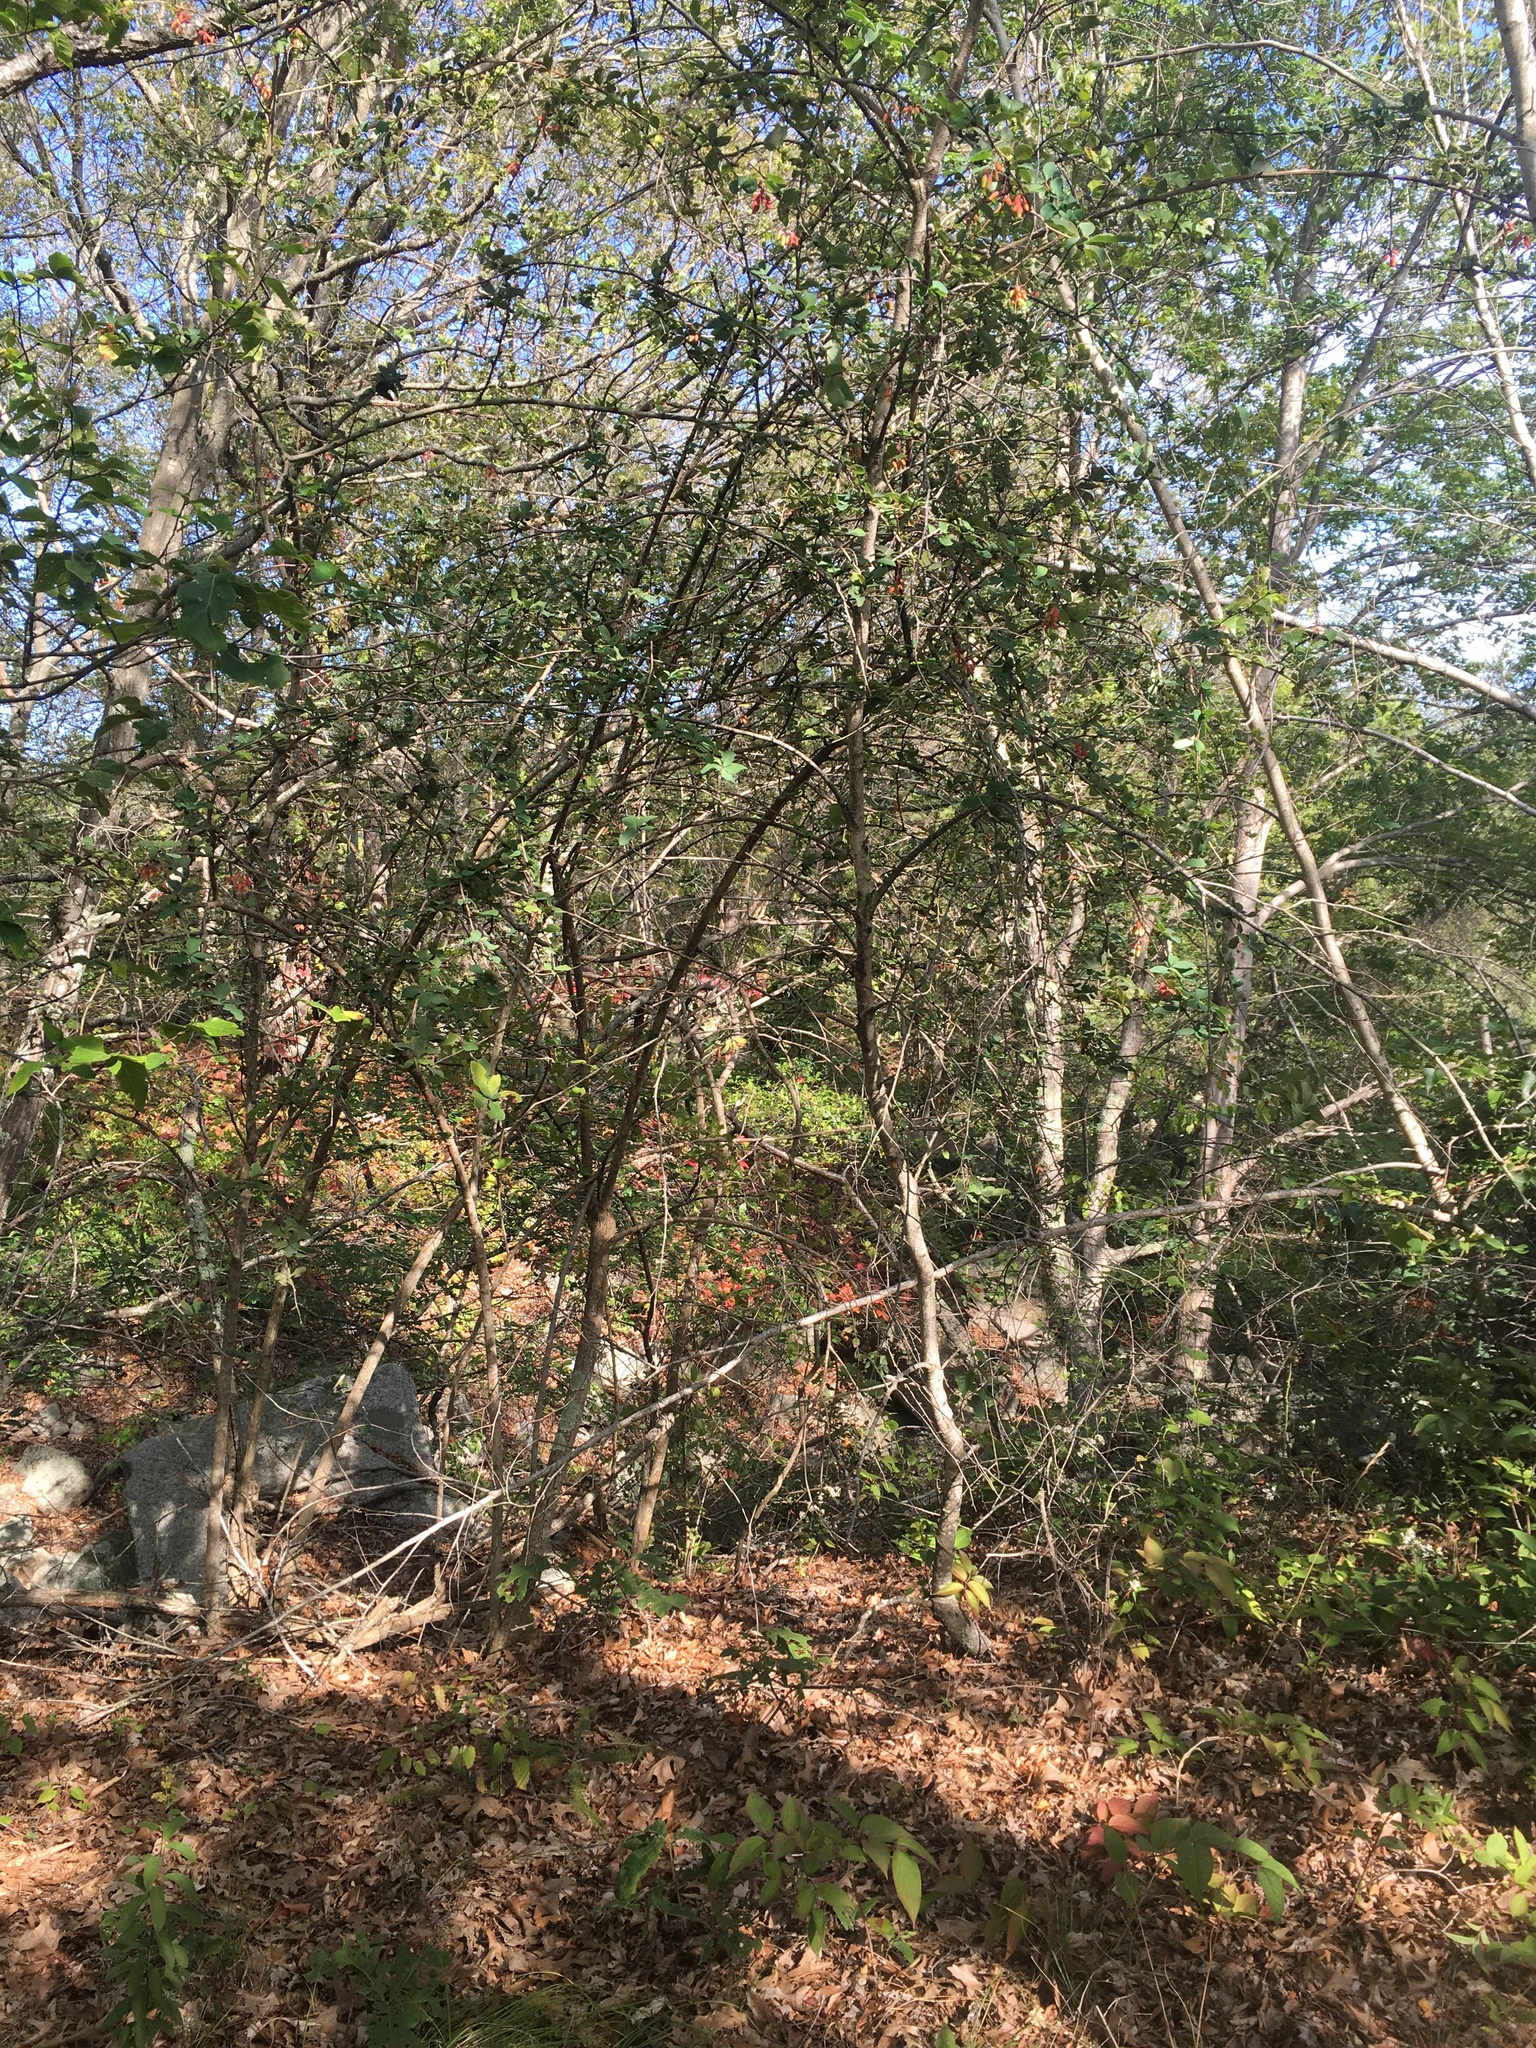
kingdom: Plantae
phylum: Tracheophyta
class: Magnoliopsida
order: Ranunculales
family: Berberidaceae
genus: Berberis
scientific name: Berberis vulgaris
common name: Barberry
